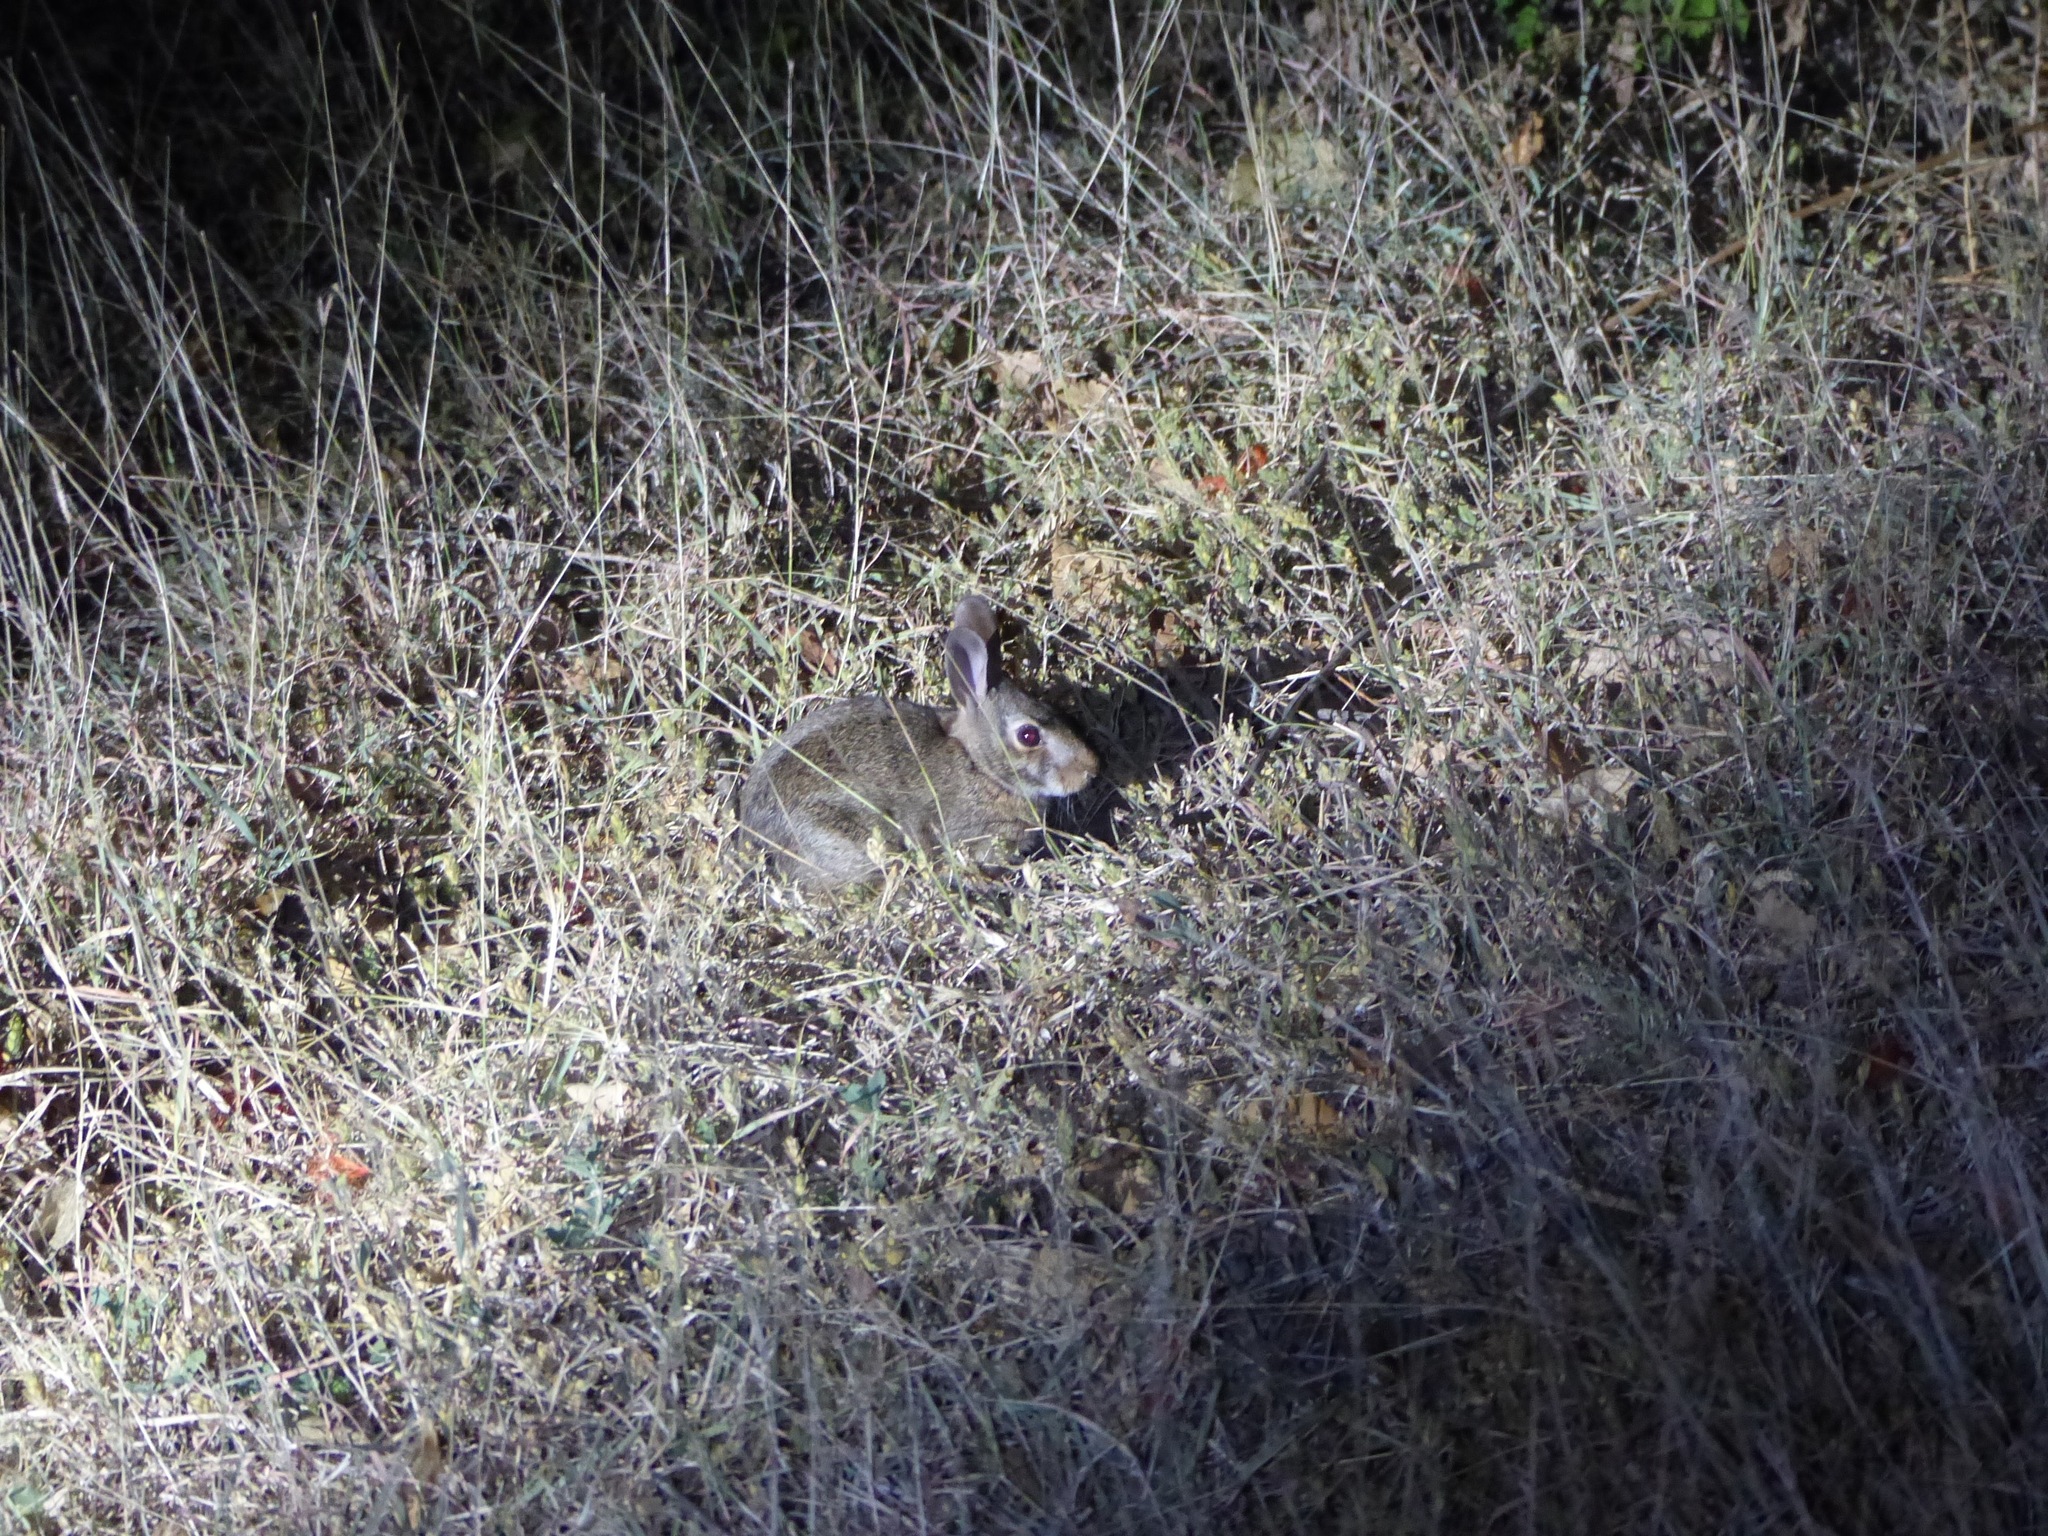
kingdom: Animalia
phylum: Chordata
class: Mammalia
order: Lagomorpha
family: Leporidae
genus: Sylvilagus
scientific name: Sylvilagus floridanus
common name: Eastern cottontail
